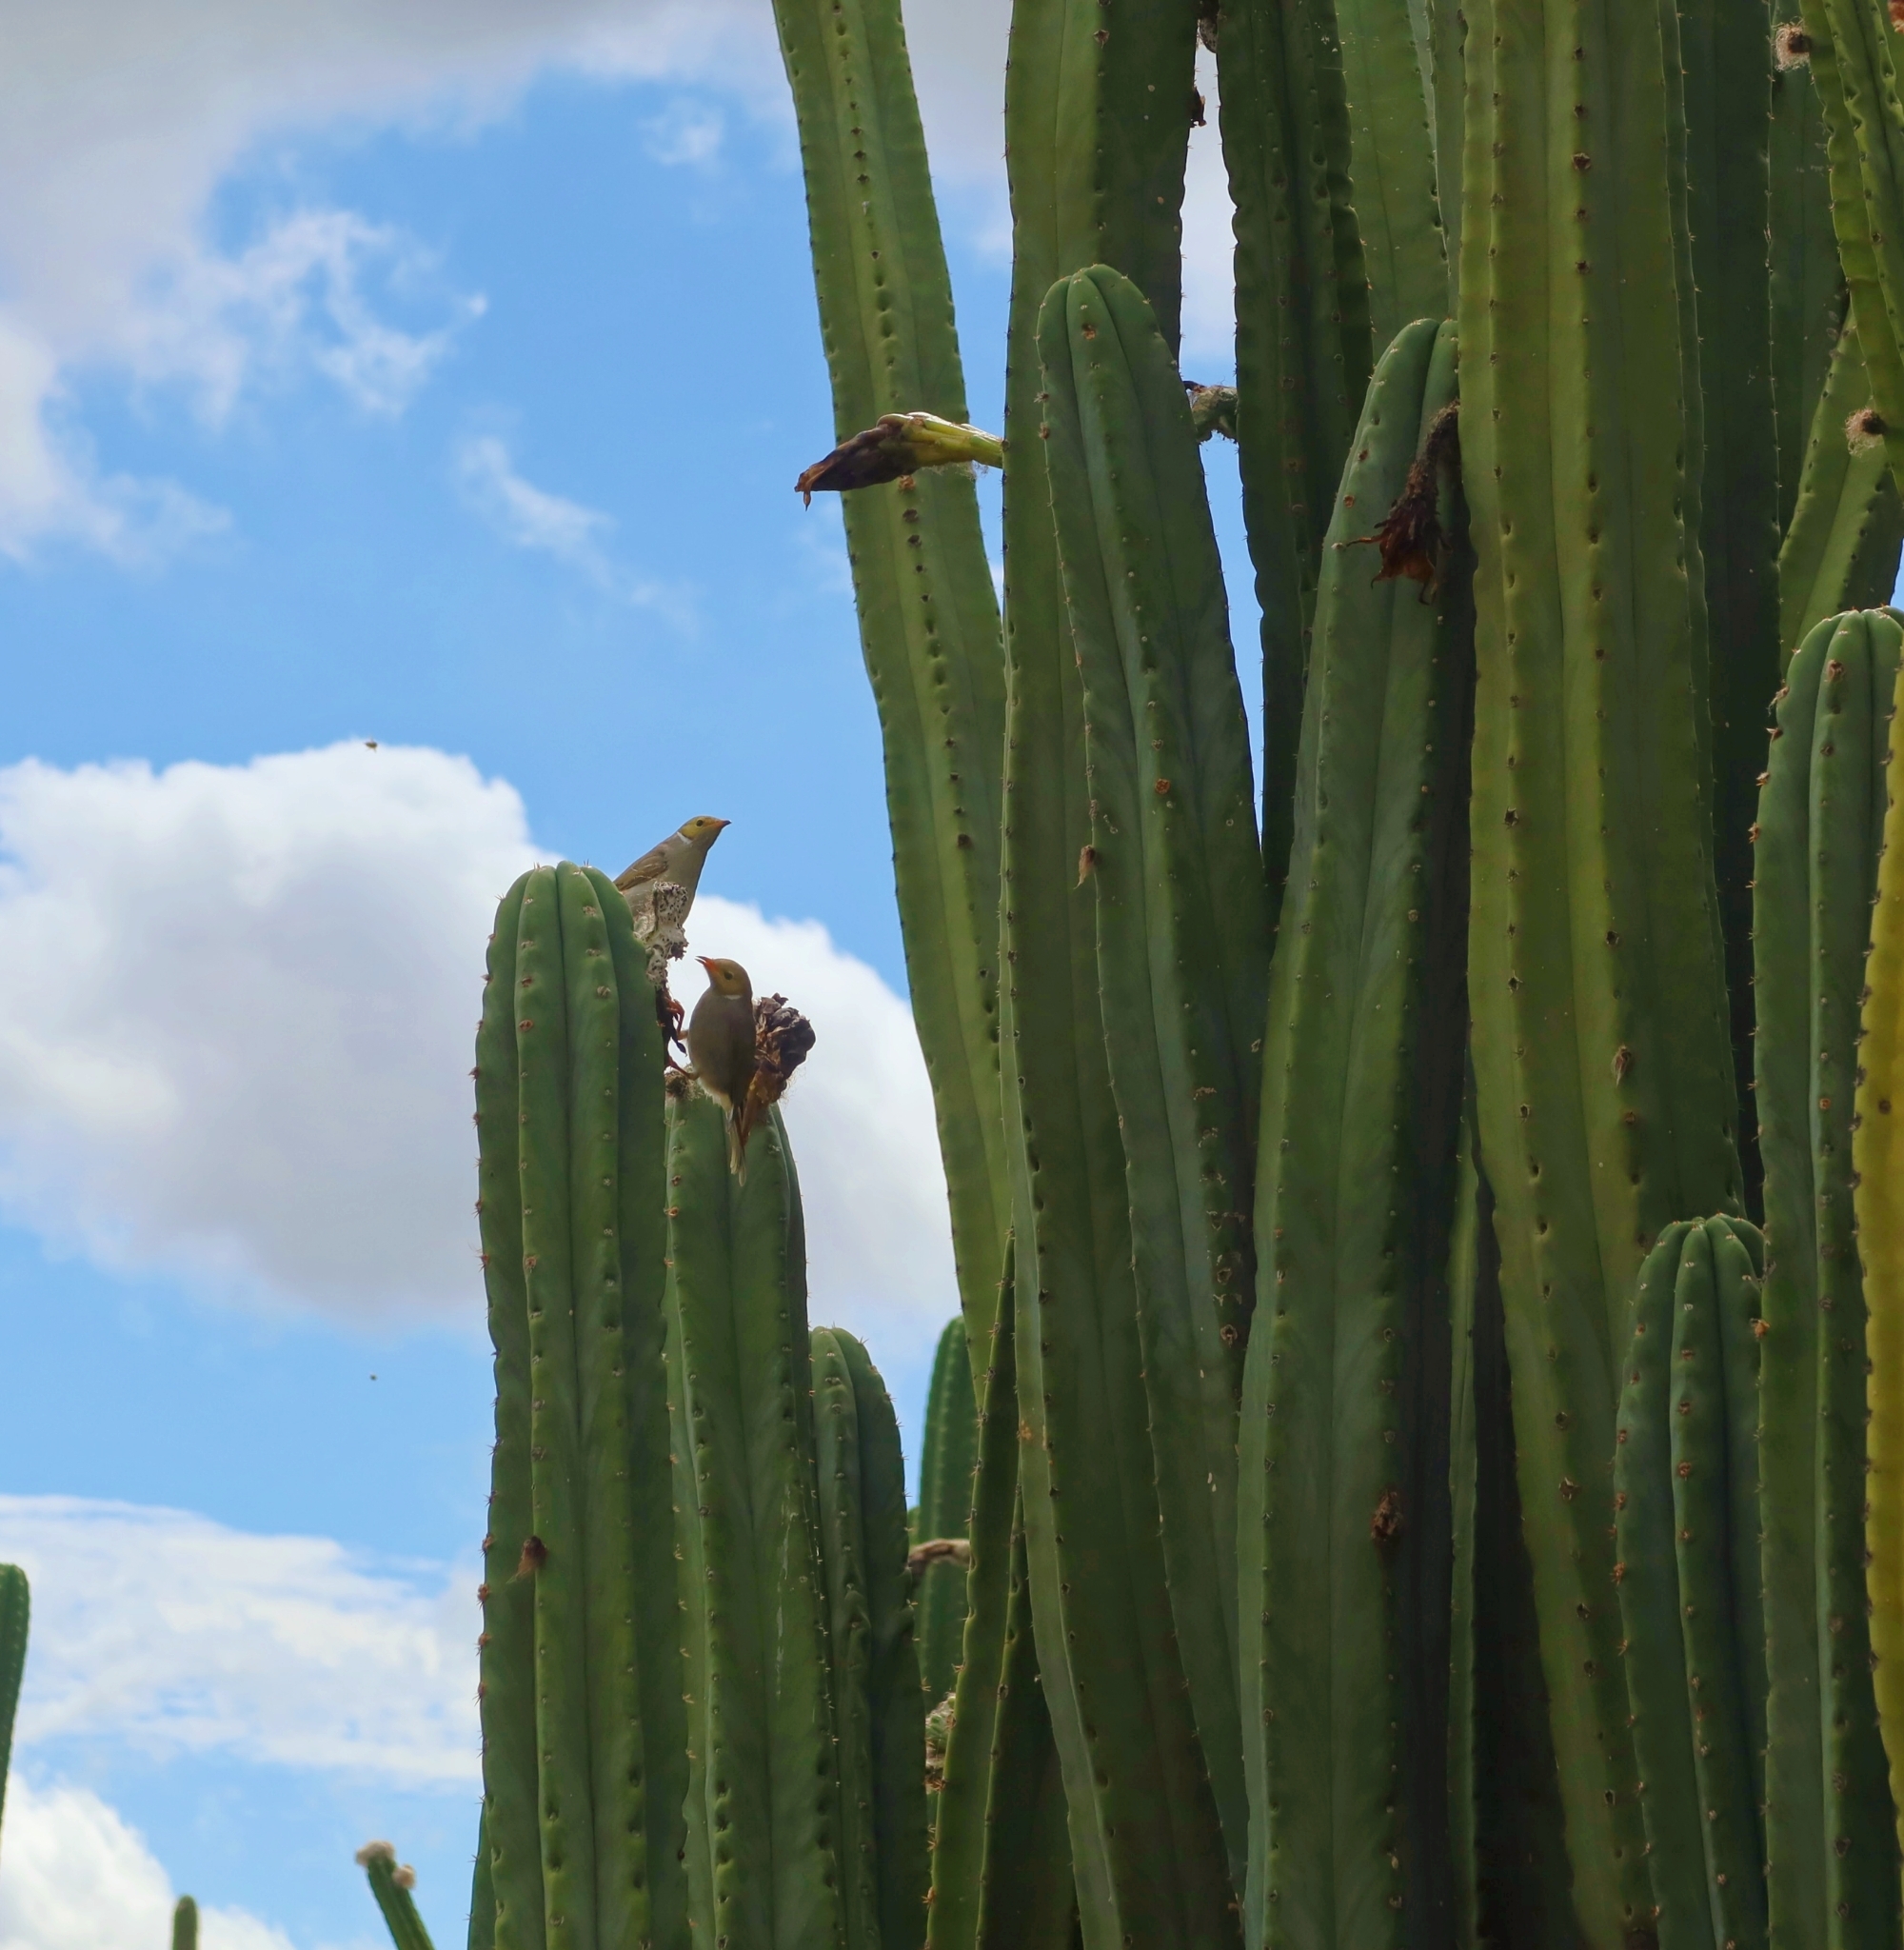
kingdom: Animalia
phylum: Chordata
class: Aves
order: Passeriformes
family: Meliphagidae
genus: Ptilotula
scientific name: Ptilotula penicillata
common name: White-plumed honeyeater
